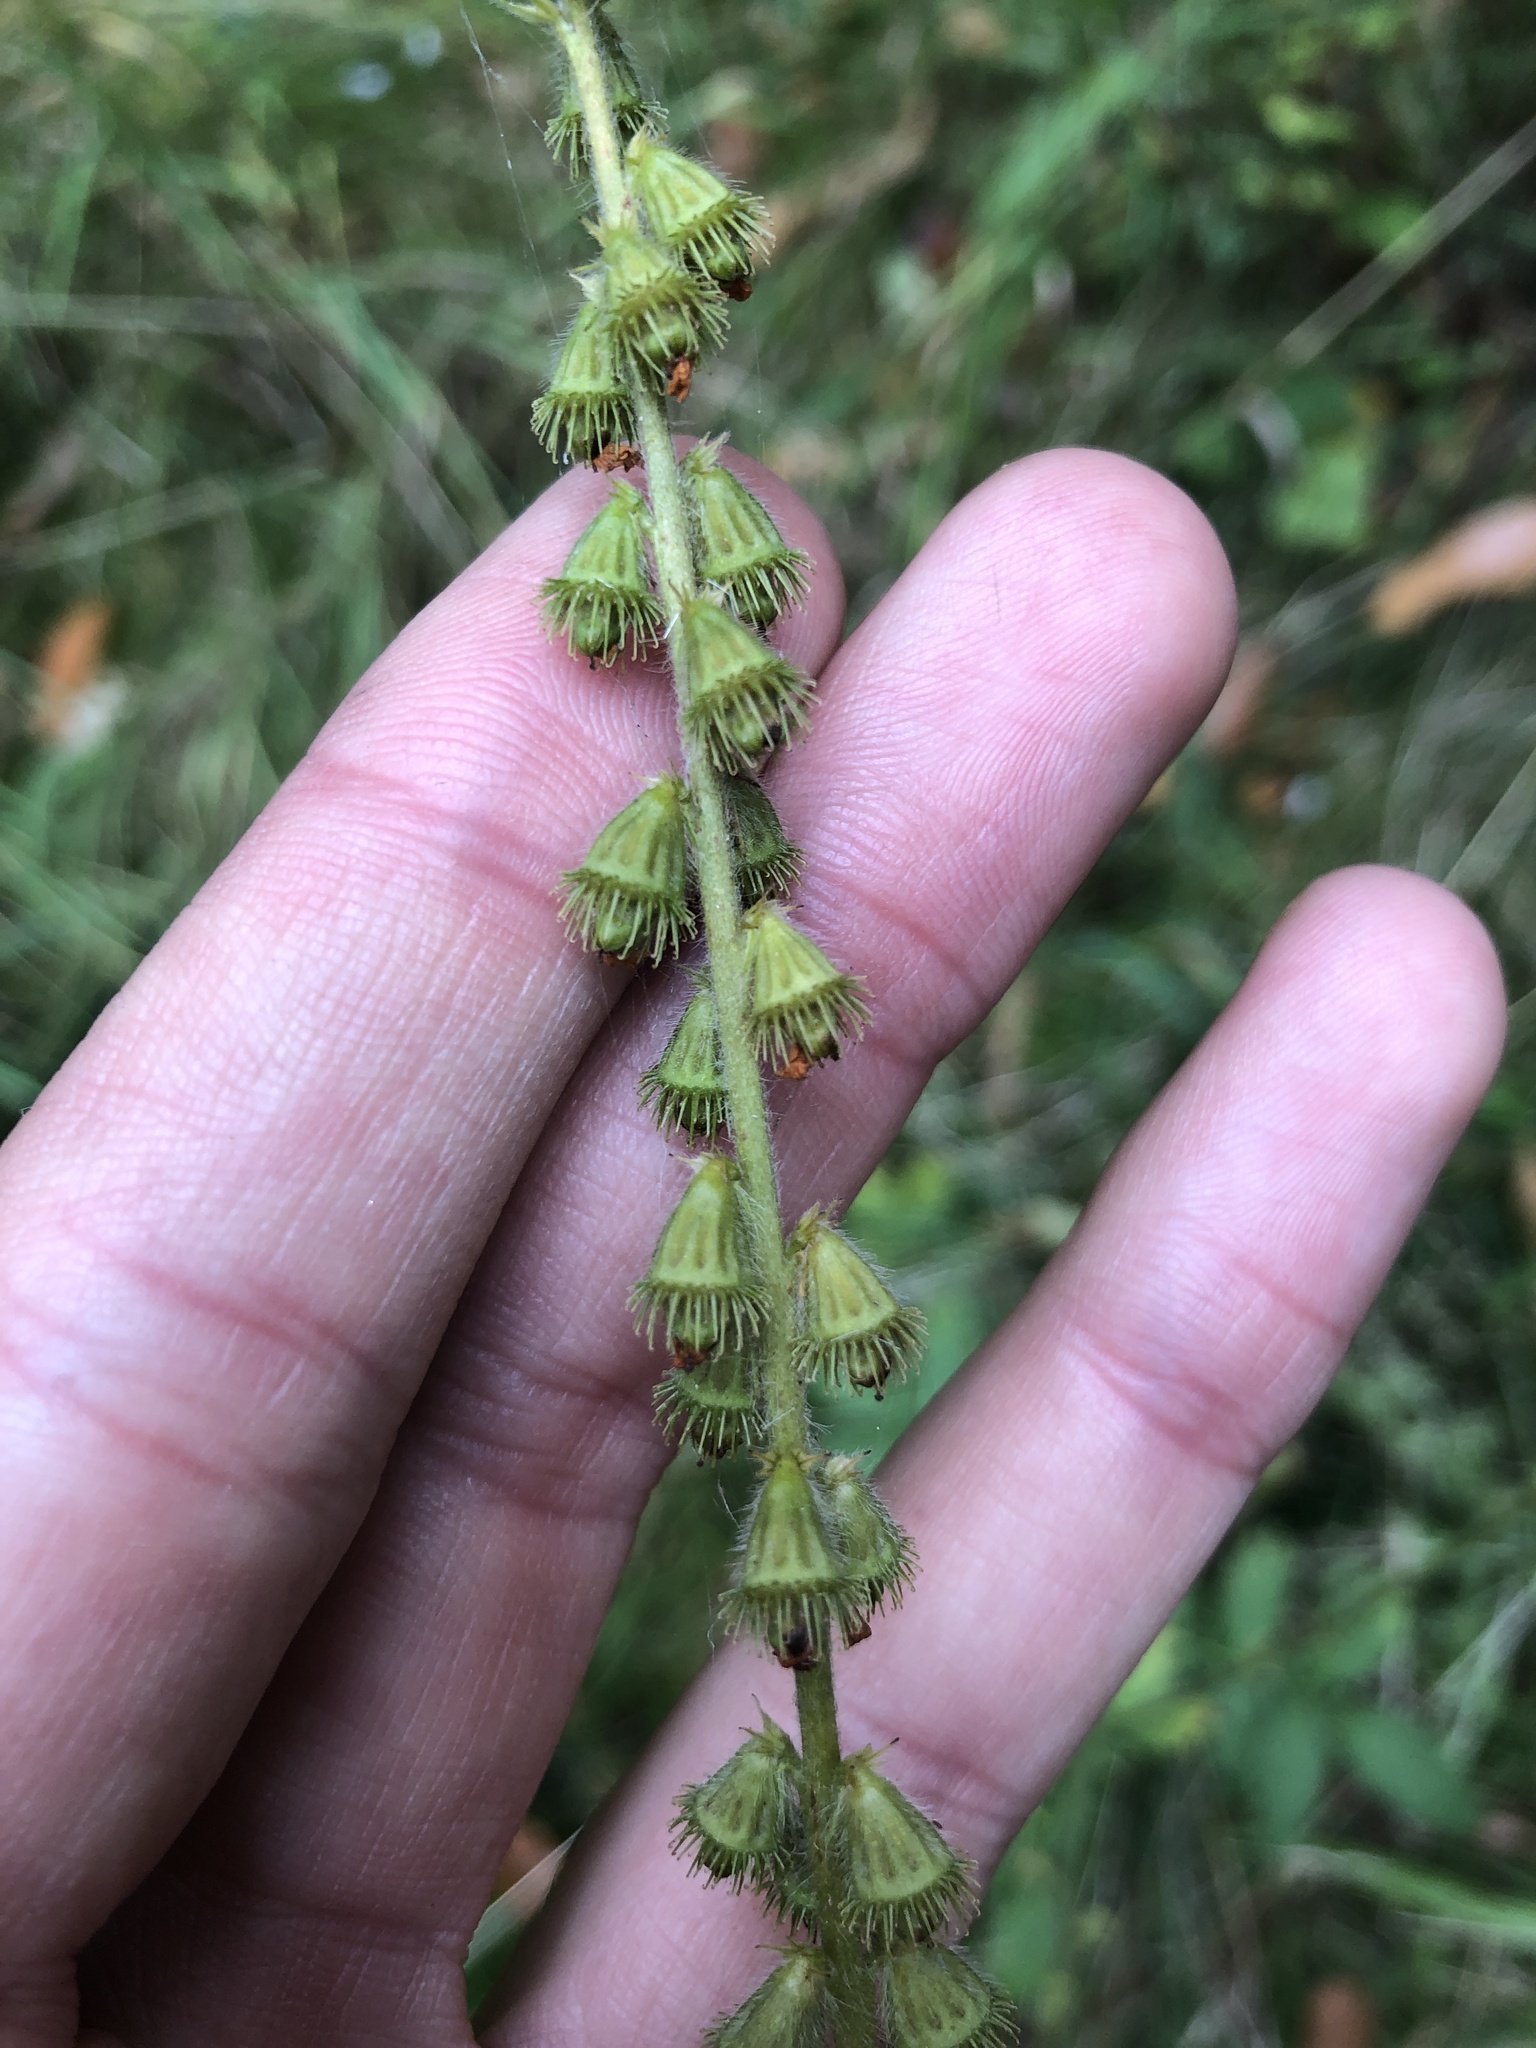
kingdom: Plantae
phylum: Tracheophyta
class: Magnoliopsida
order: Rosales
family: Rosaceae
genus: Agrimonia
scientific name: Agrimonia eupatoria
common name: Agrimony
